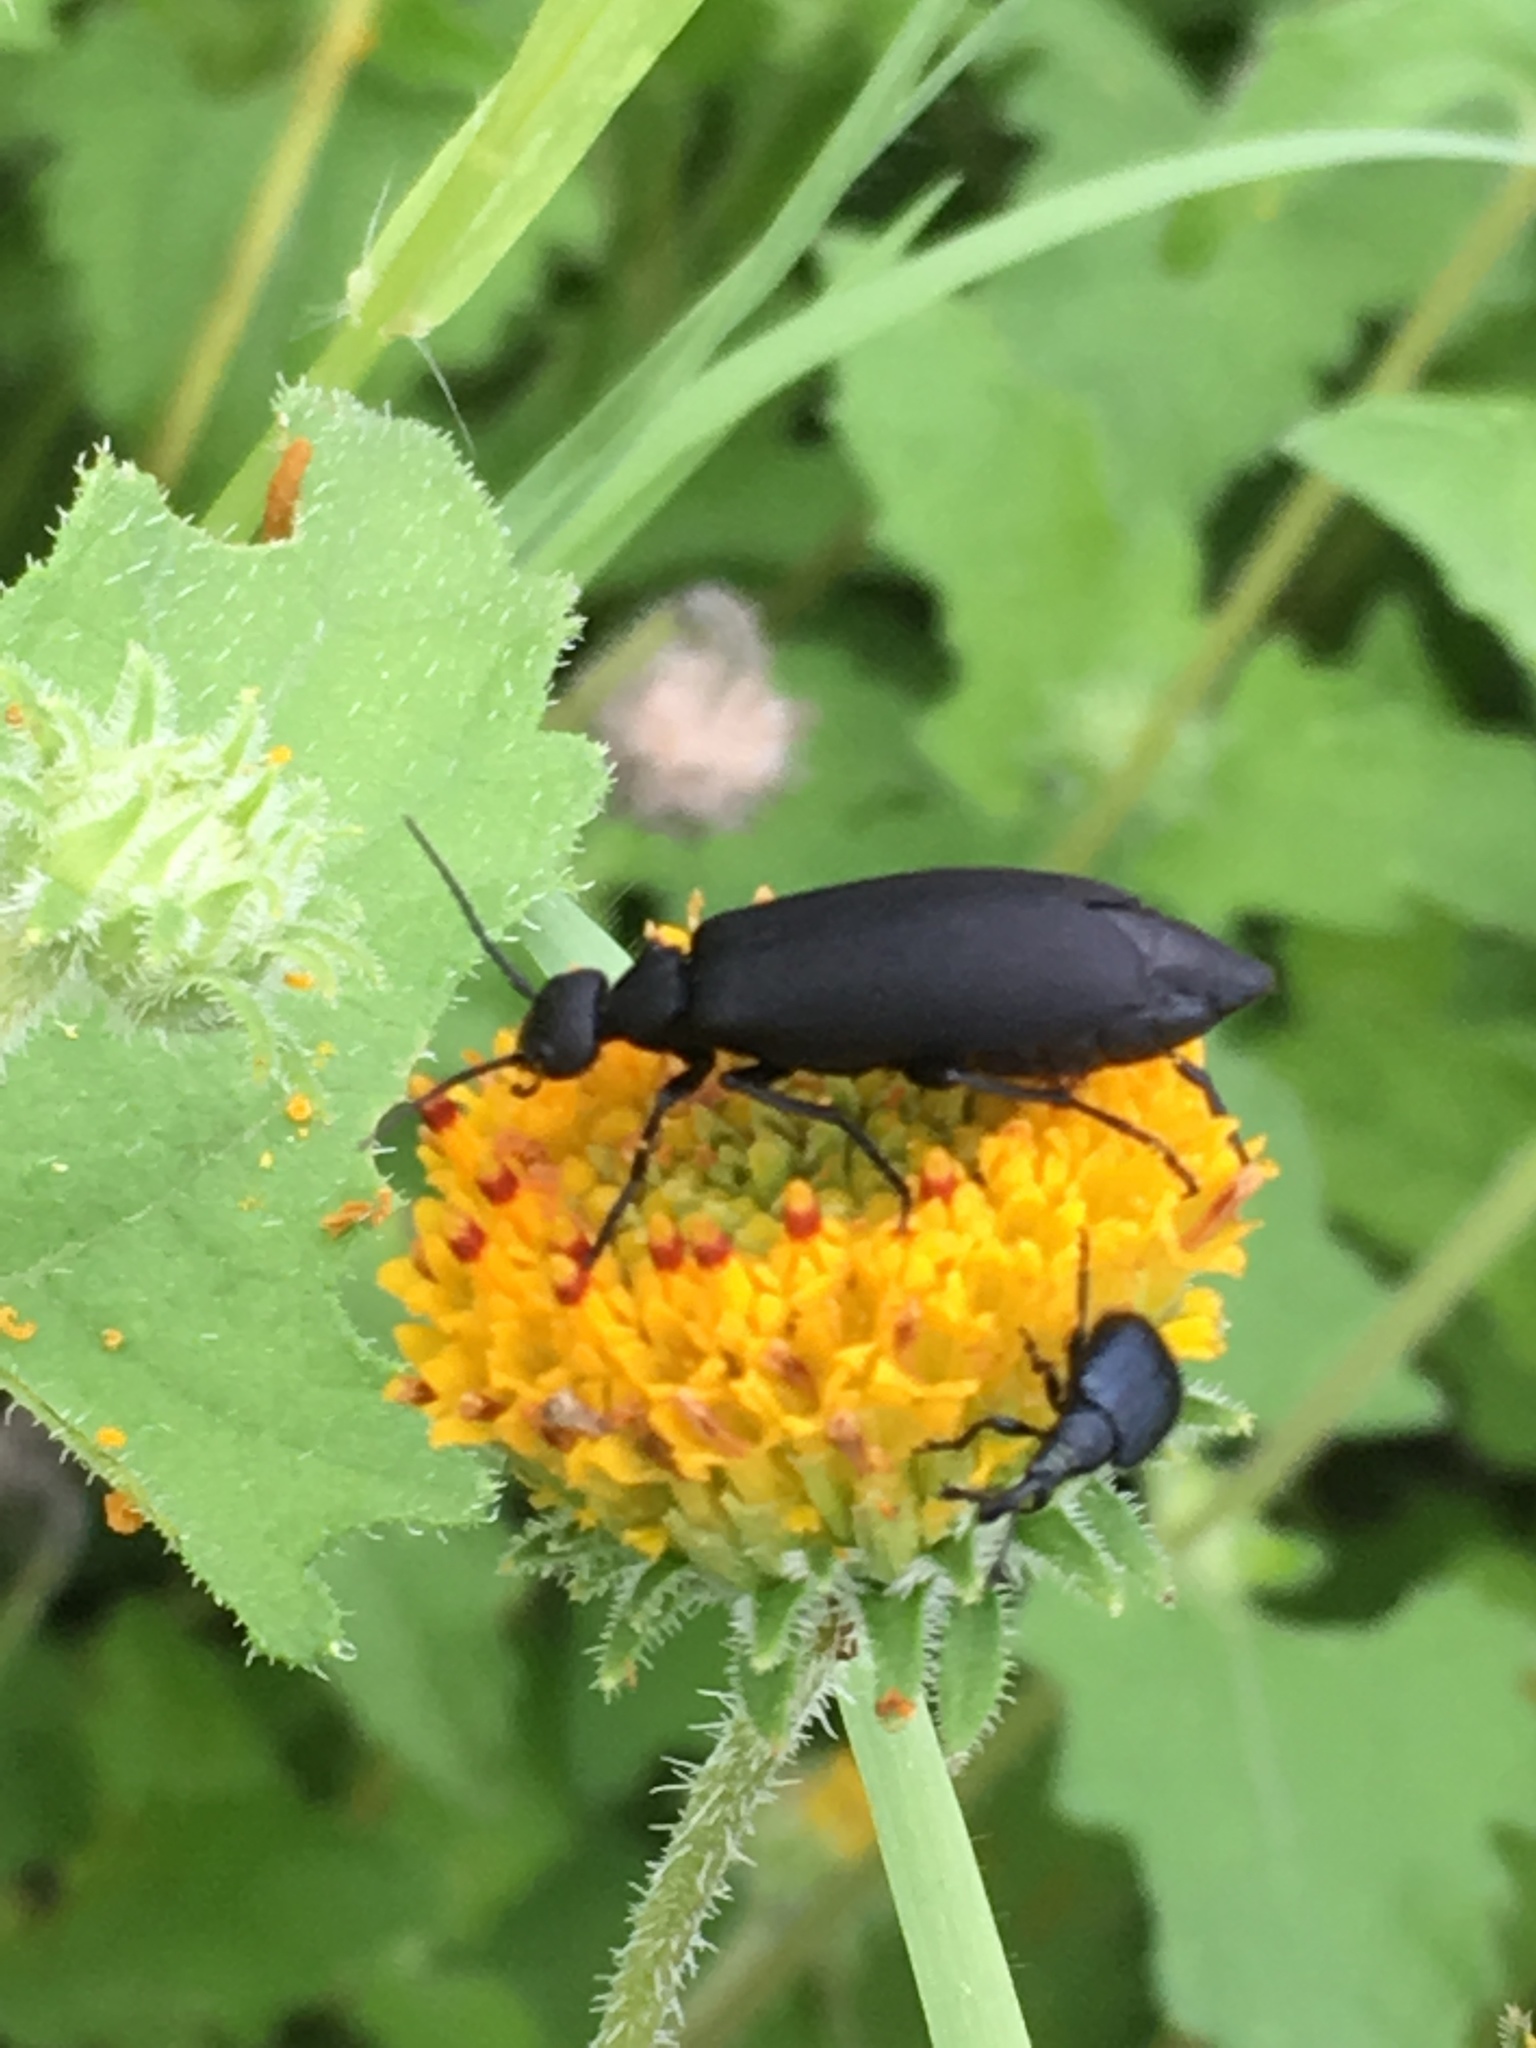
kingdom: Animalia
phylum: Arthropoda
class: Insecta
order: Coleoptera
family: Meloidae
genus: Epicauta
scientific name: Epicauta pensylvanica
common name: Black blister beetle
